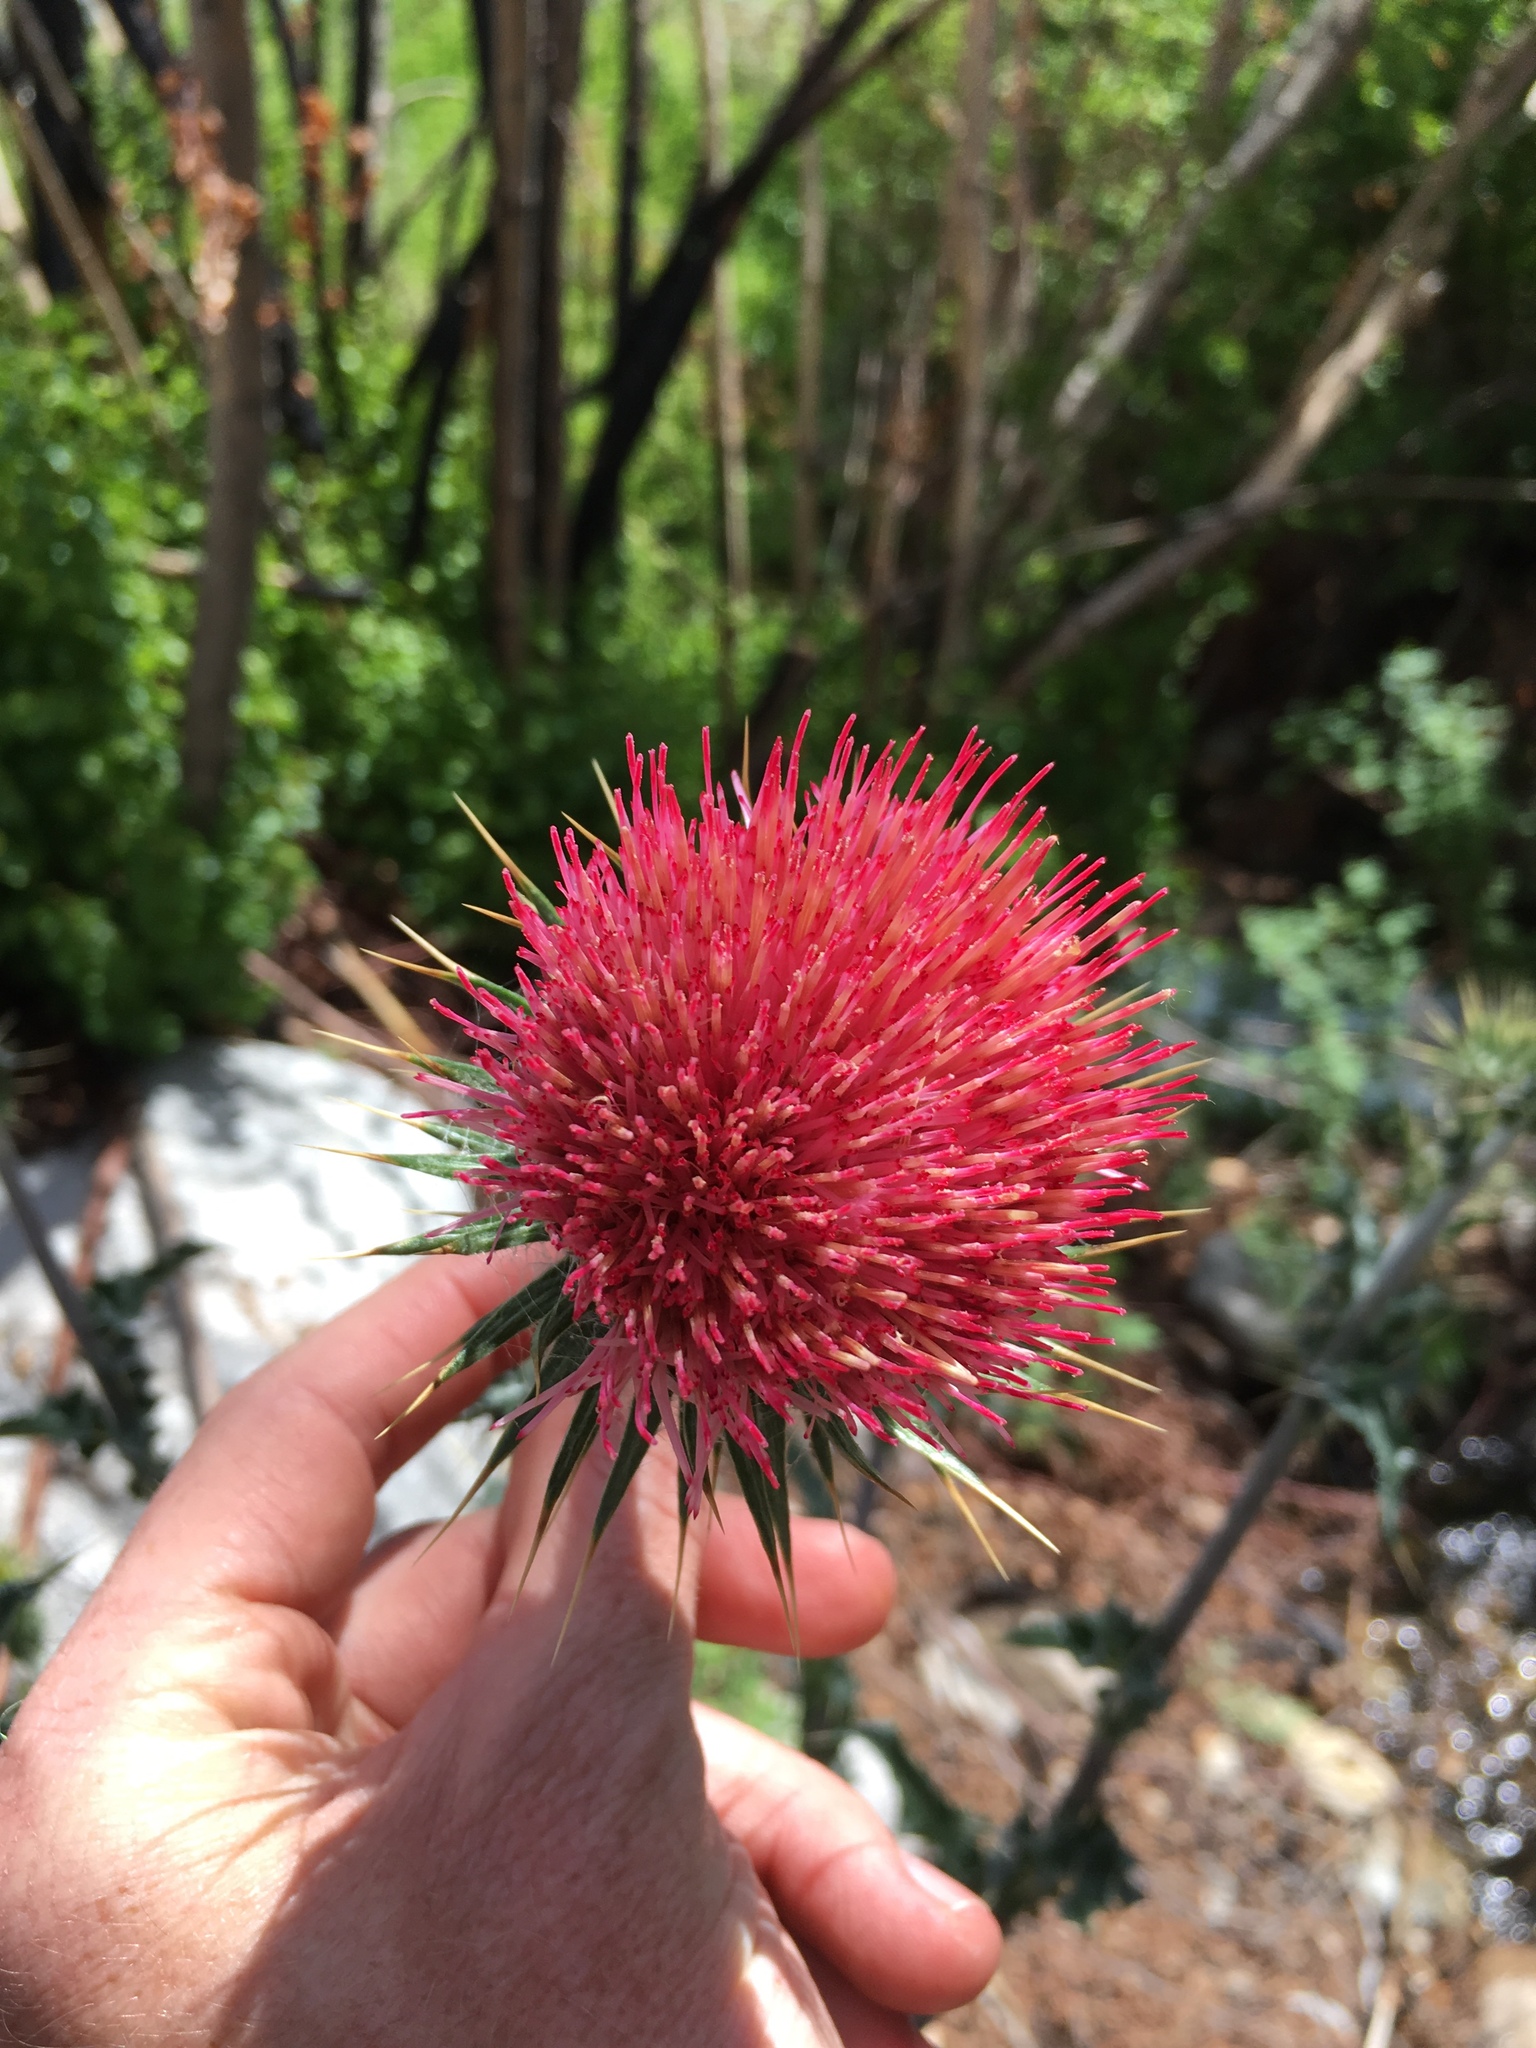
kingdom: Plantae
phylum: Tracheophyta
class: Magnoliopsida
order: Asterales
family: Asteraceae
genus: Cirsium
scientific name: Cirsium occidentale
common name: Western thistle
